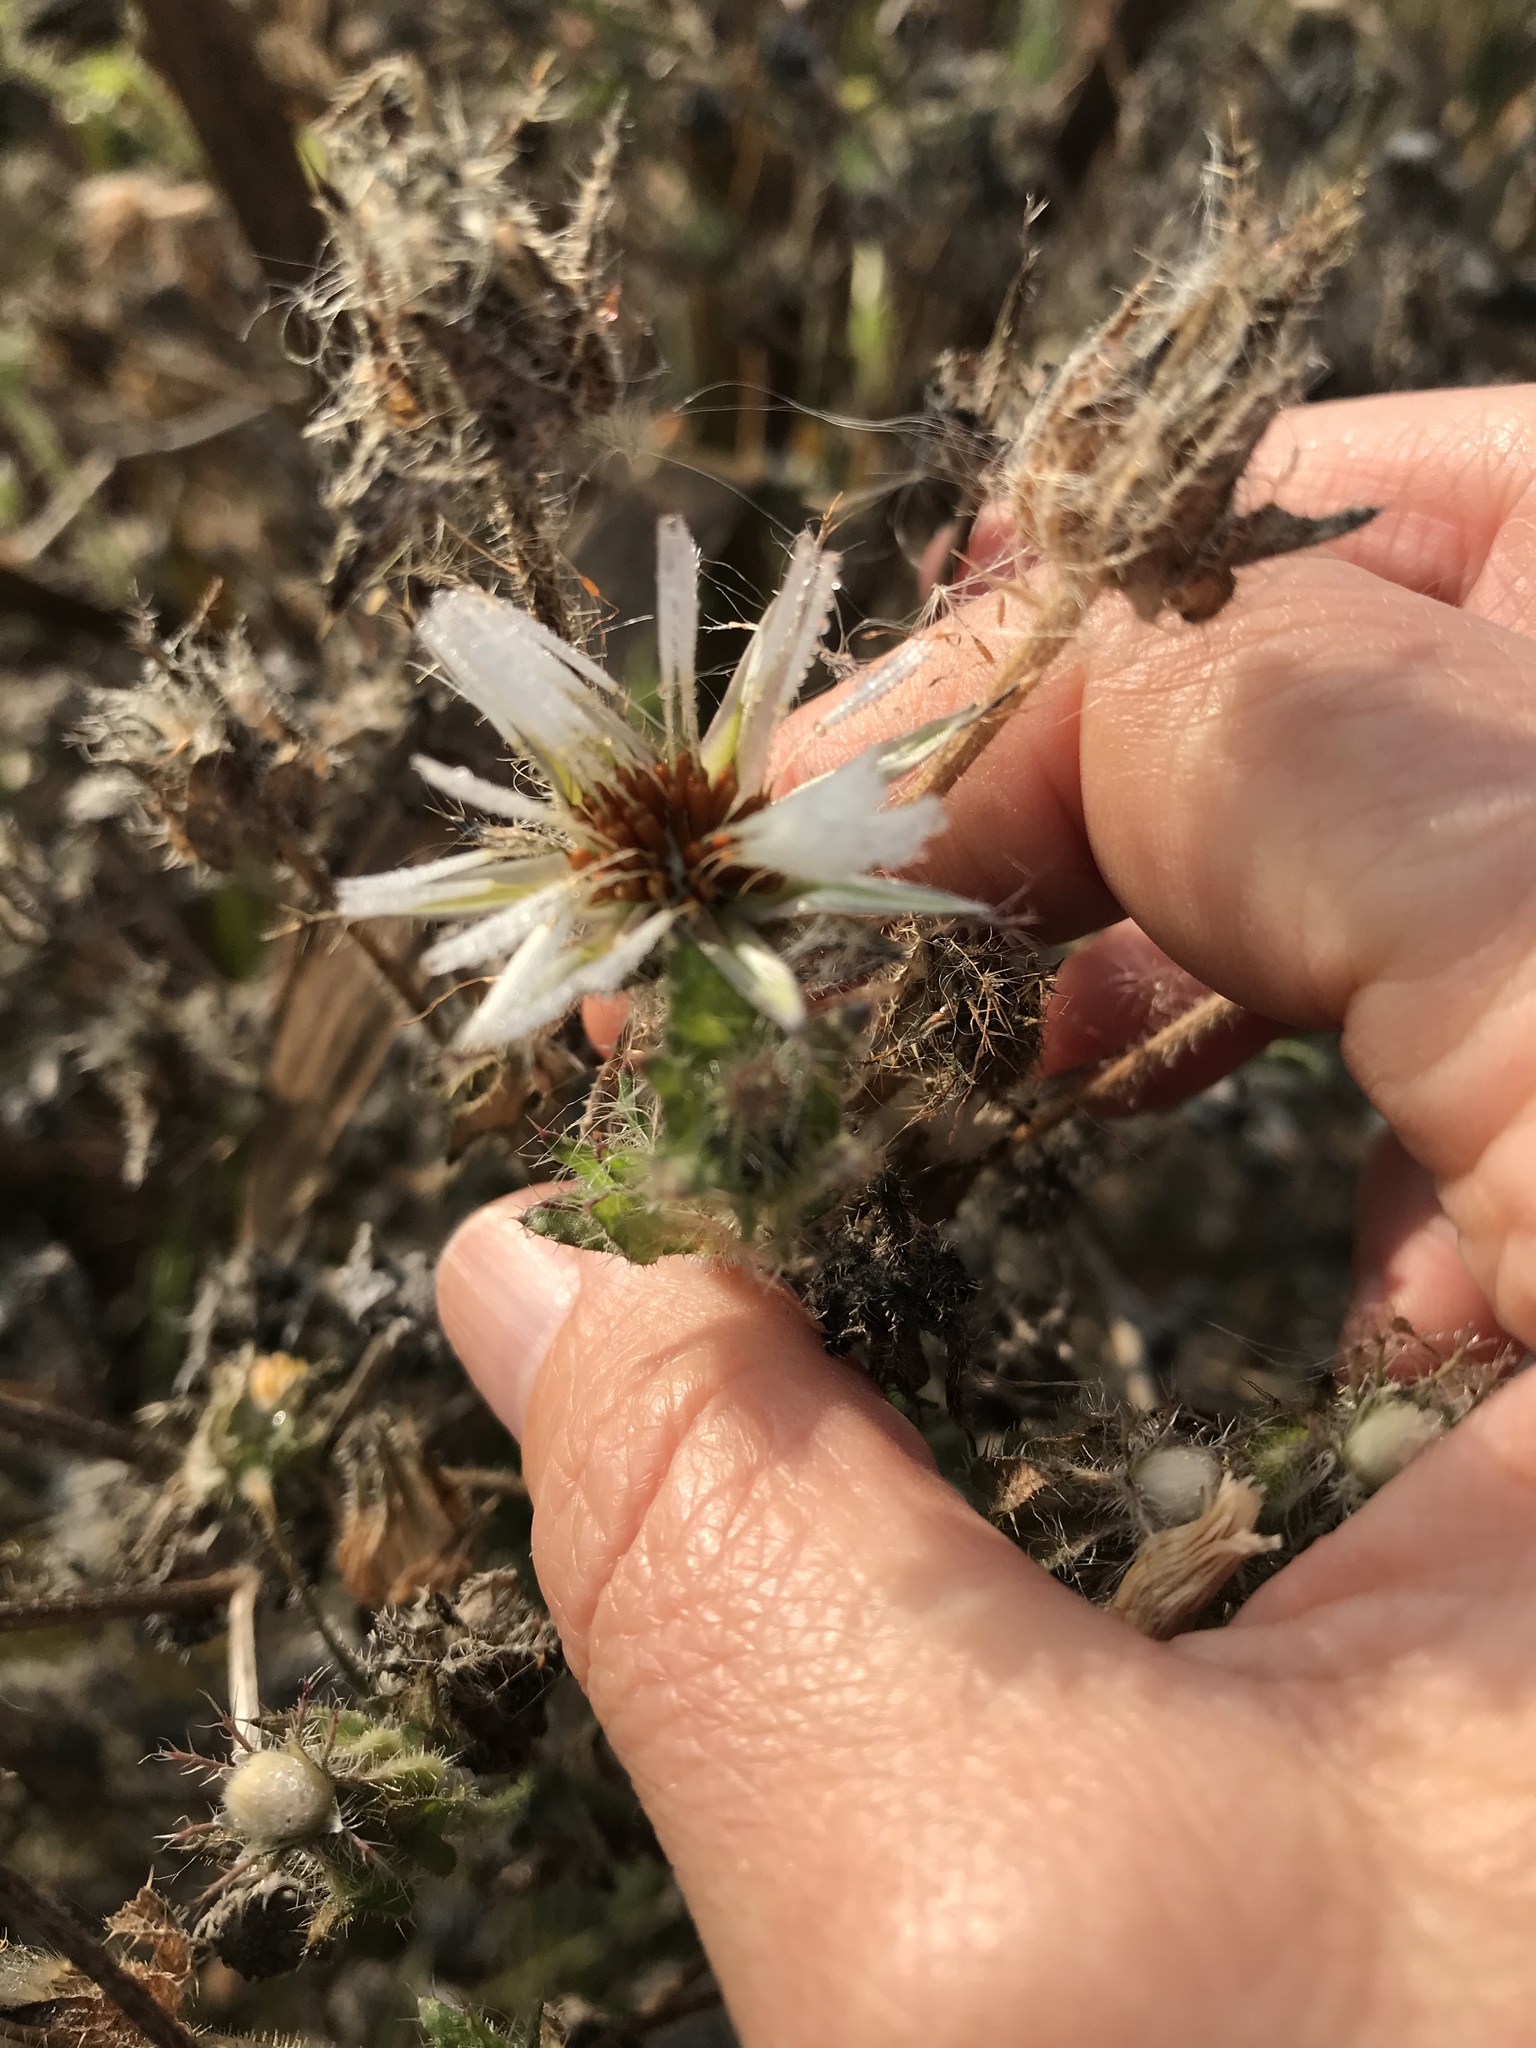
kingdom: Plantae
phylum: Tracheophyta
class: Magnoliopsida
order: Asterales
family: Asteraceae
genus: Helminthotheca
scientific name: Helminthotheca echioides
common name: Ox-tongue
